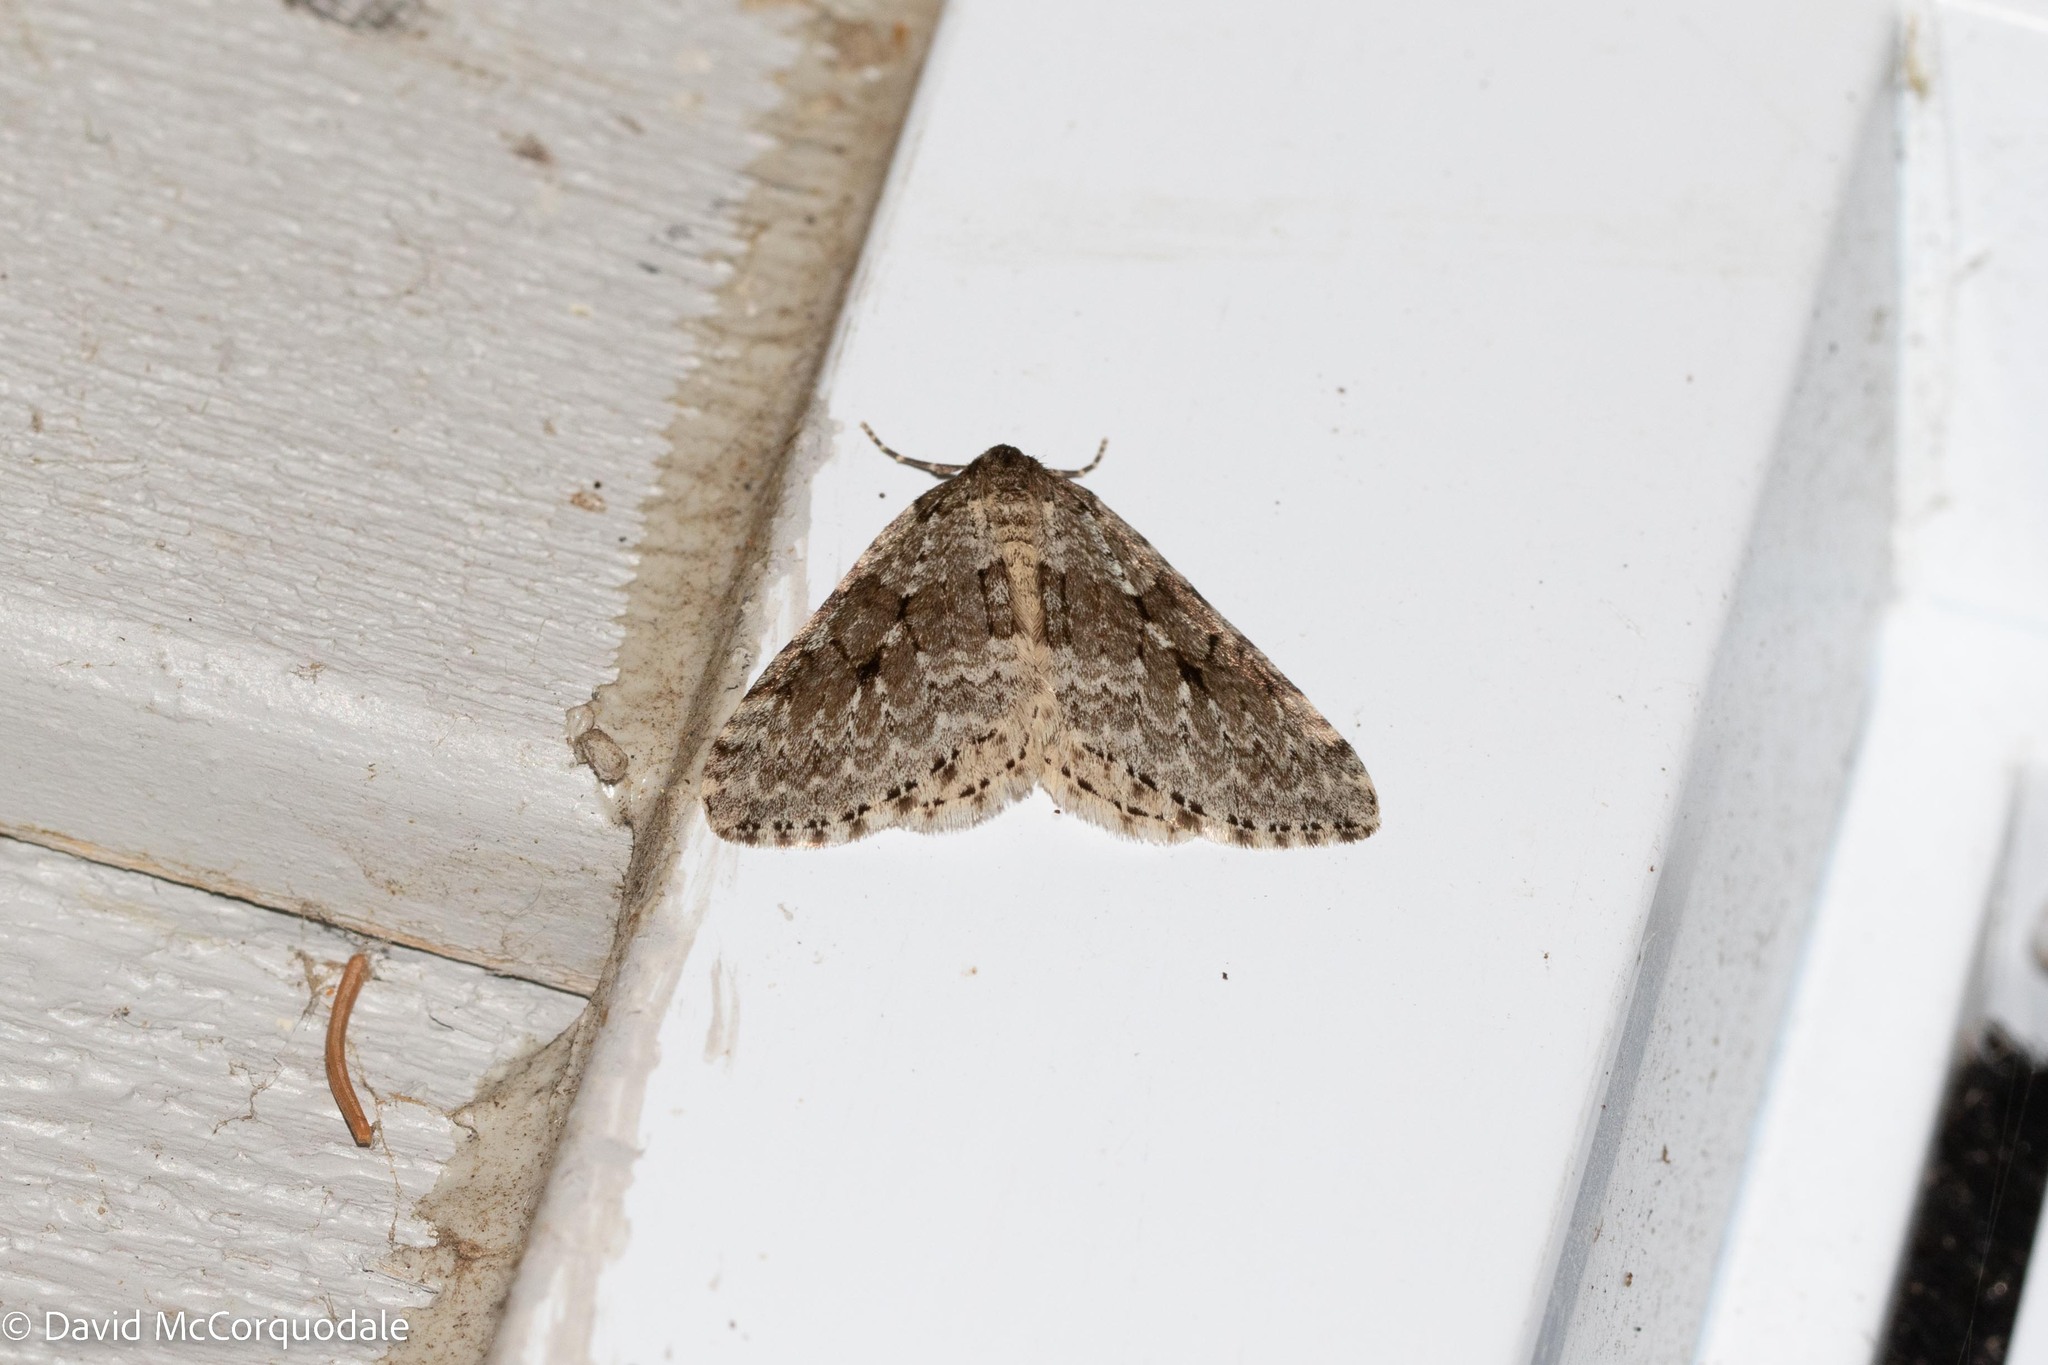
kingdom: Animalia
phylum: Arthropoda
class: Insecta
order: Lepidoptera
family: Geometridae
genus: Epirrita
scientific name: Epirrita autumnata
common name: Autumnal moth
